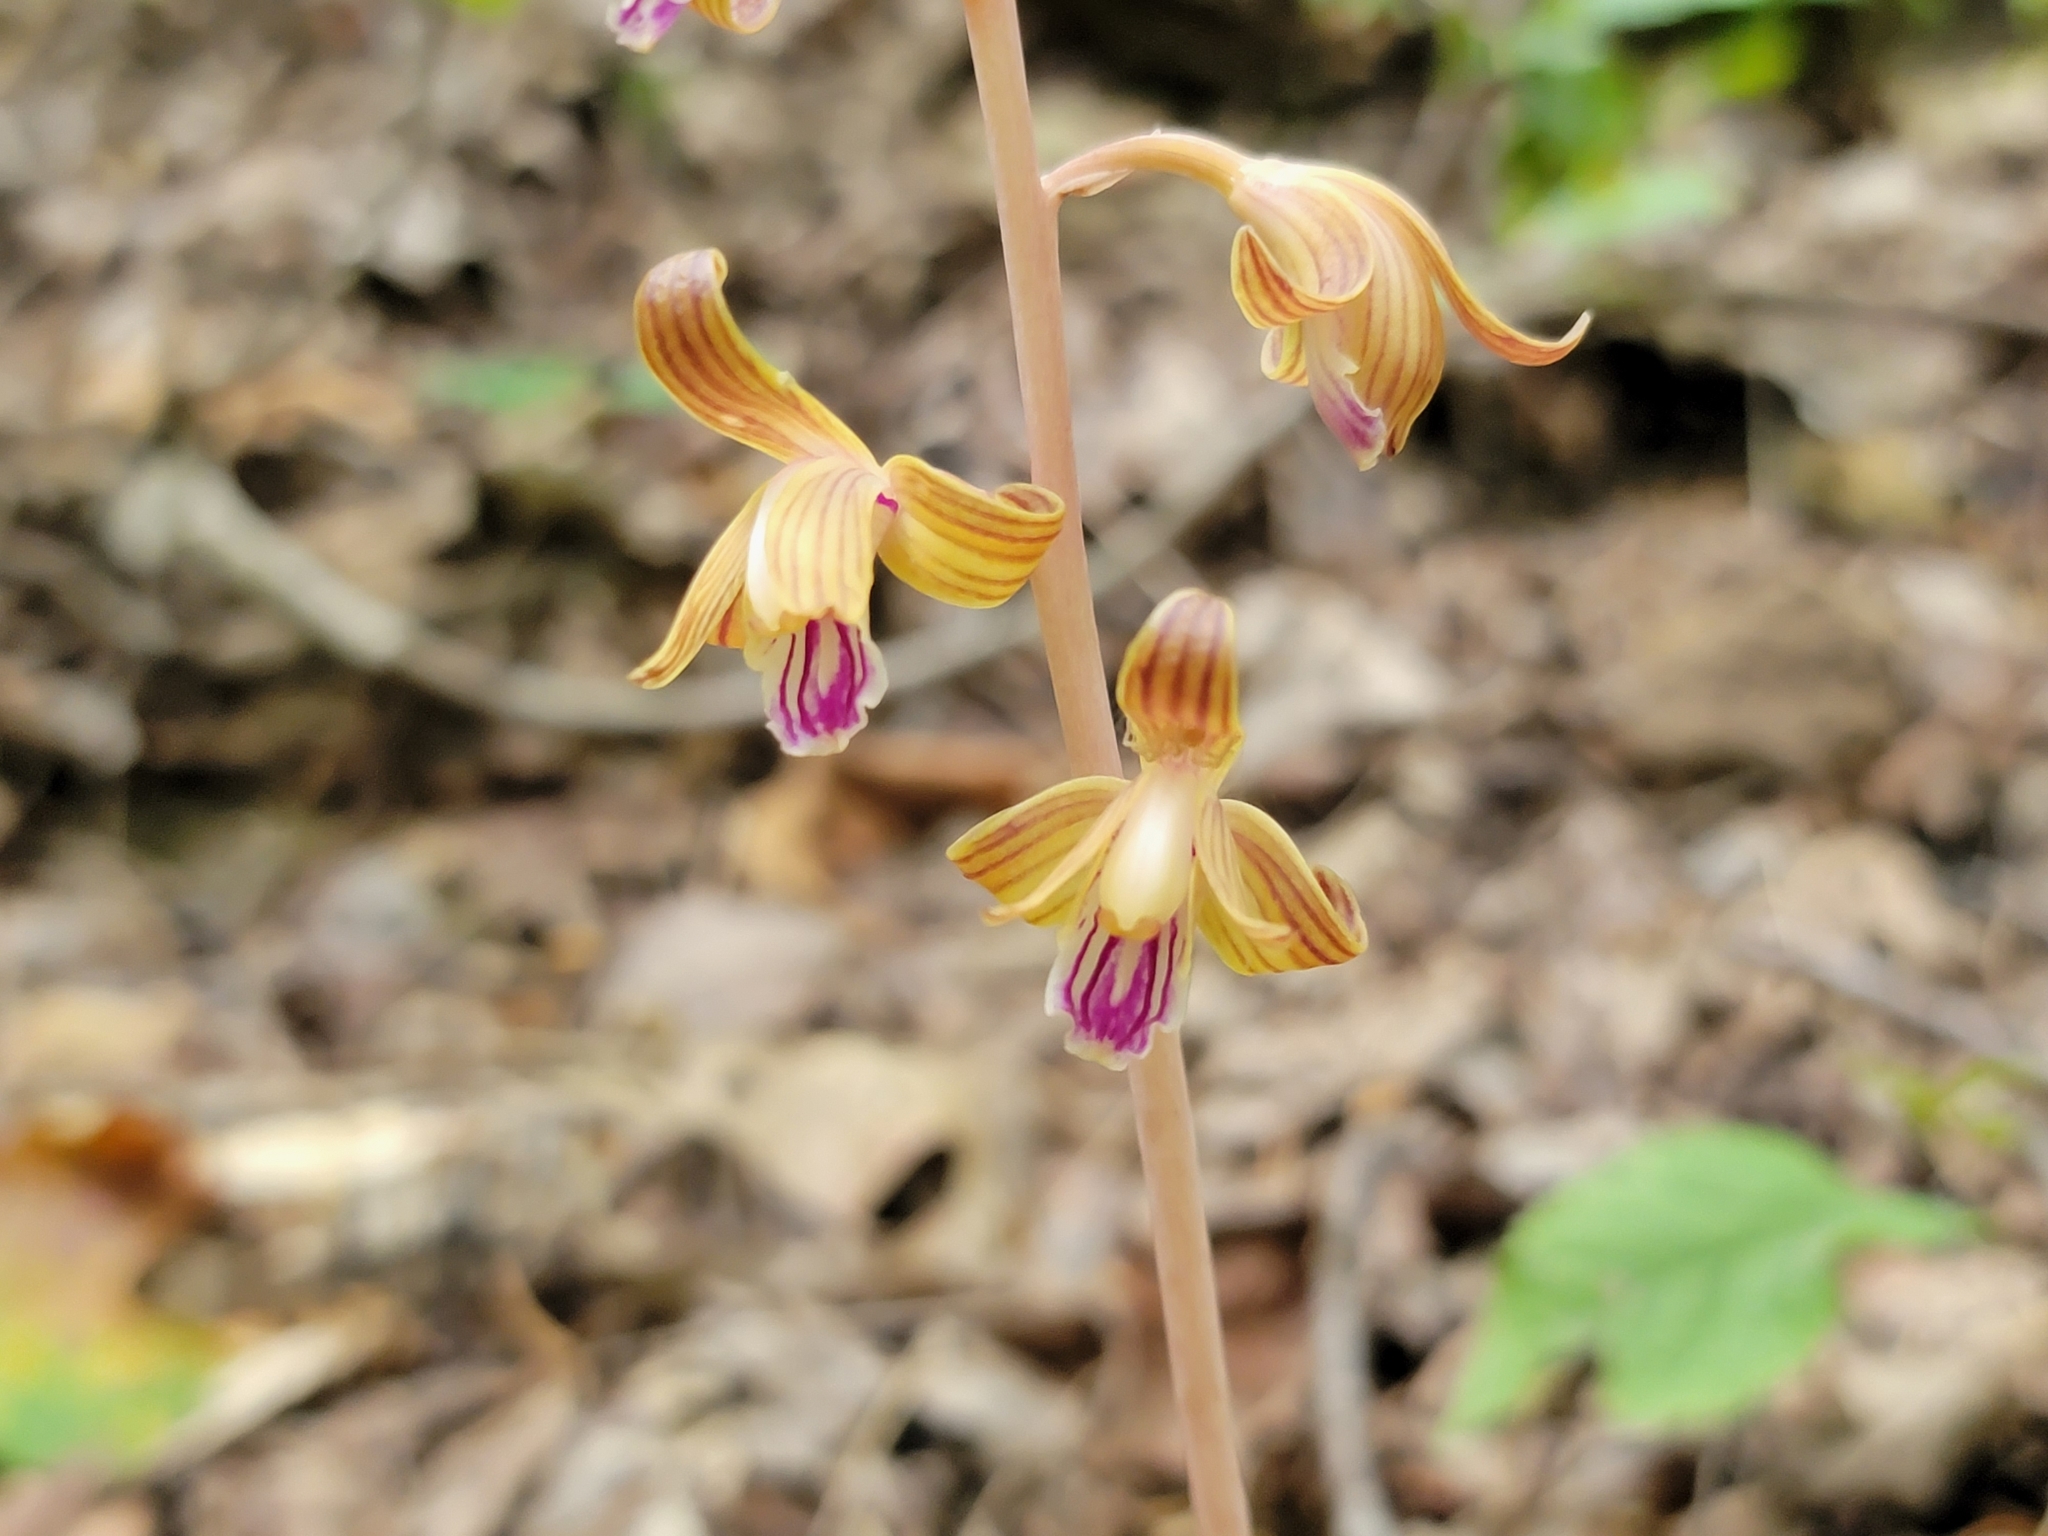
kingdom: Plantae
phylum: Tracheophyta
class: Liliopsida
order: Asparagales
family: Orchidaceae
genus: Bletia
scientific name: Bletia spicata
